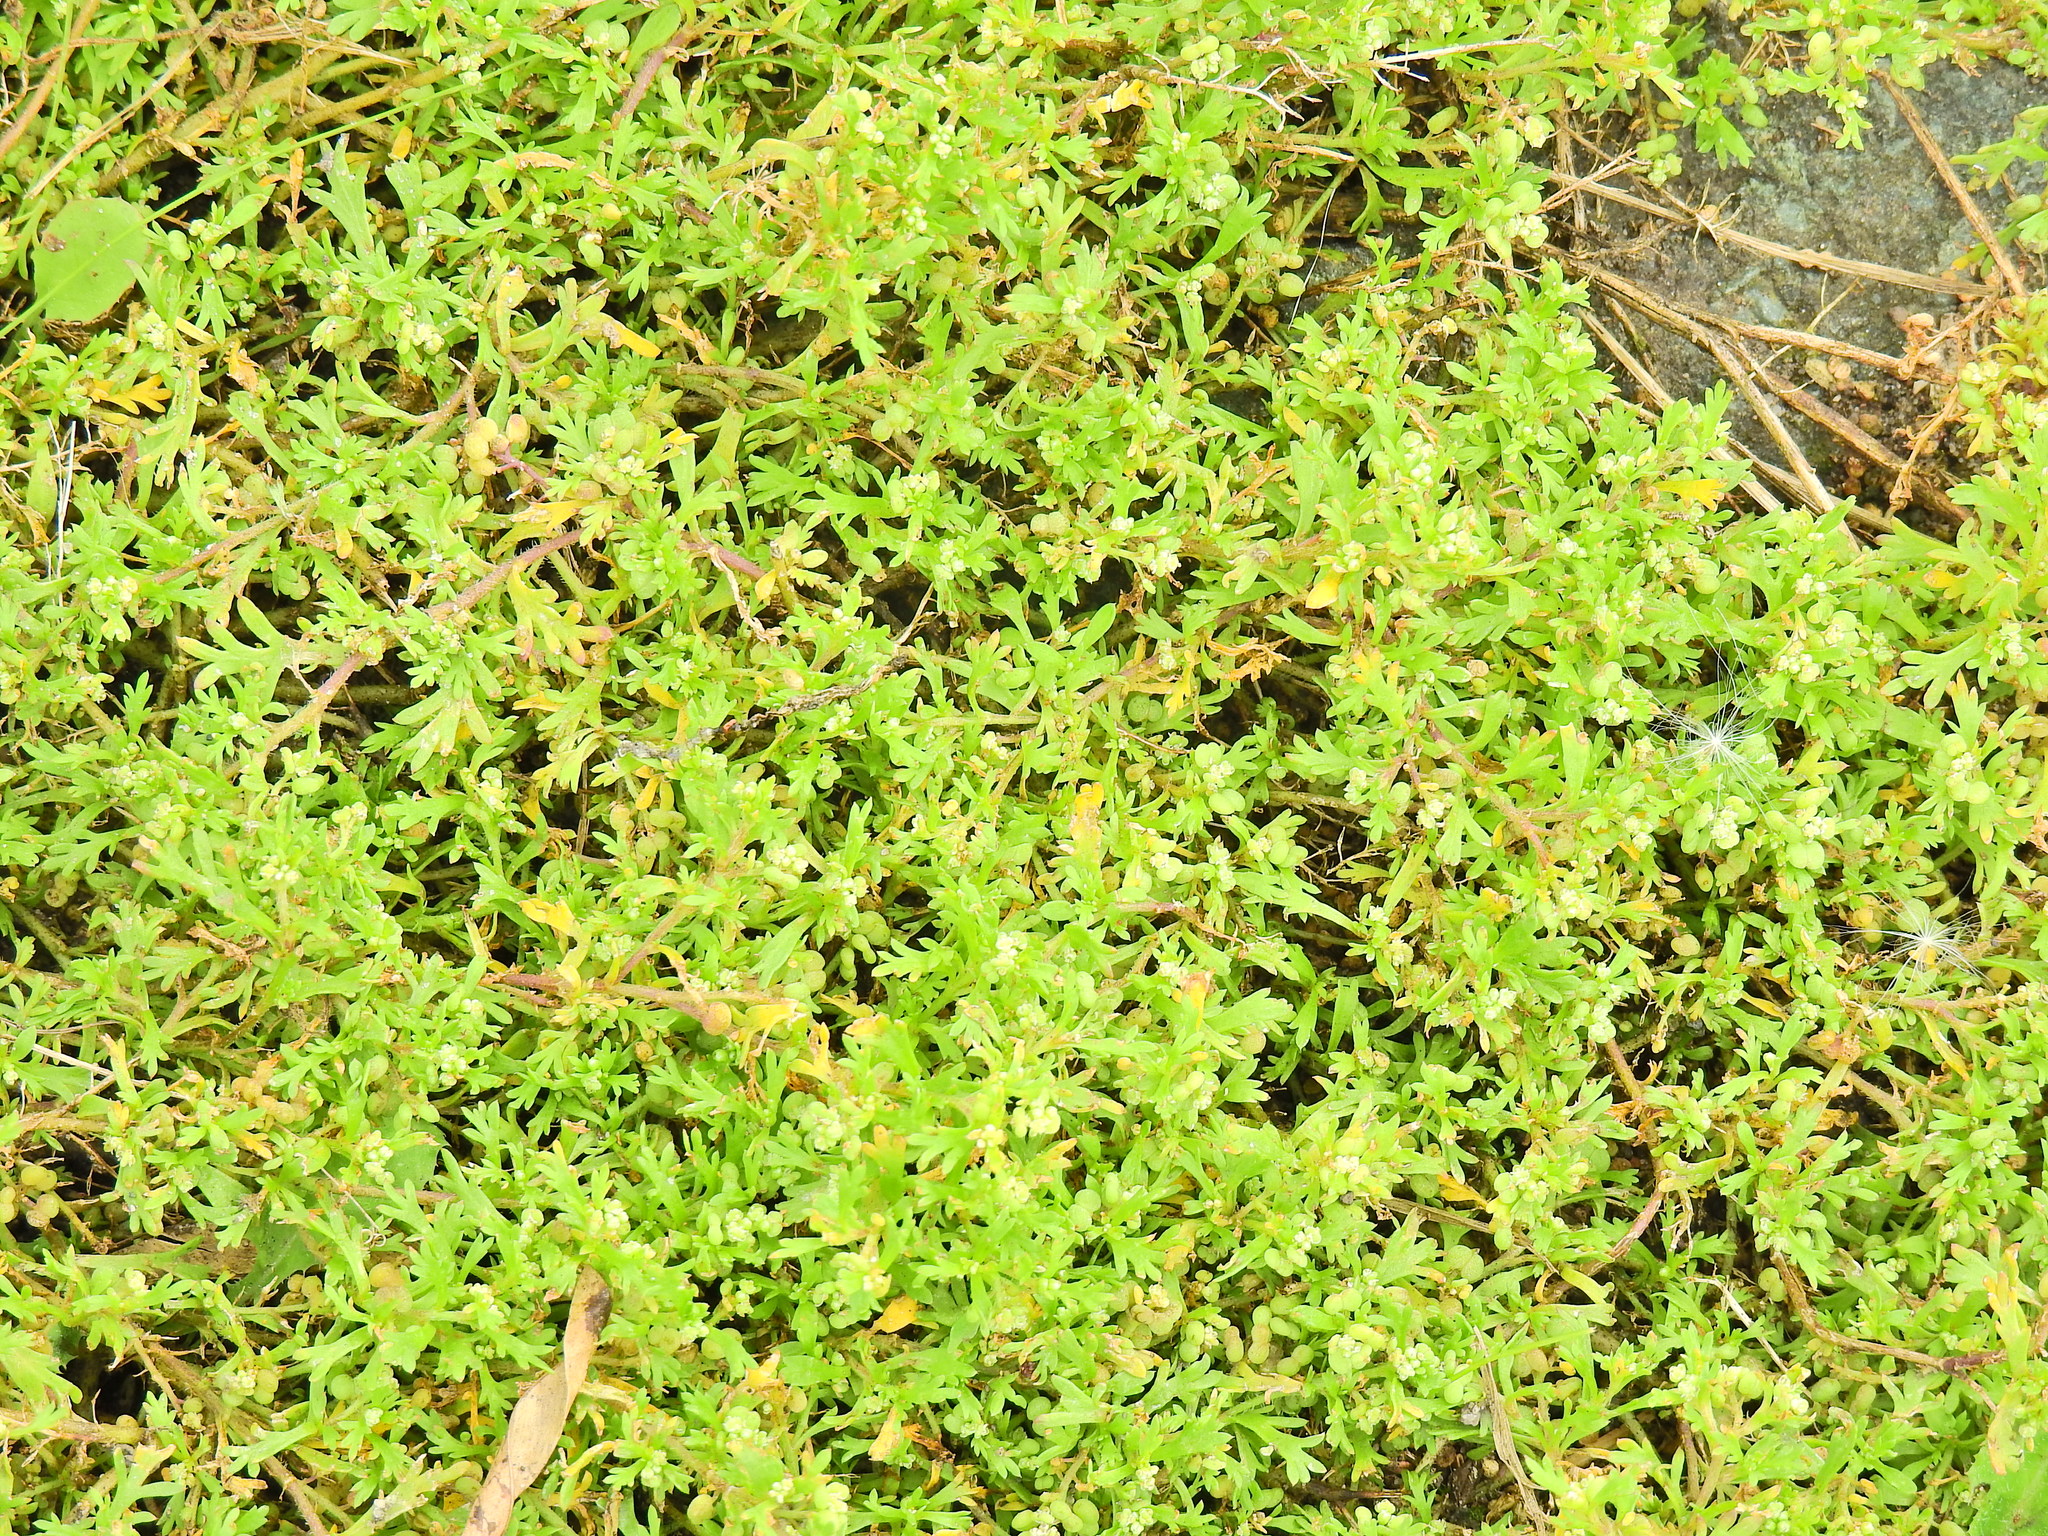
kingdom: Plantae
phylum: Tracheophyta
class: Magnoliopsida
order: Brassicales
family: Brassicaceae
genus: Lepidium
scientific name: Lepidium didymum
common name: Lesser swinecress
